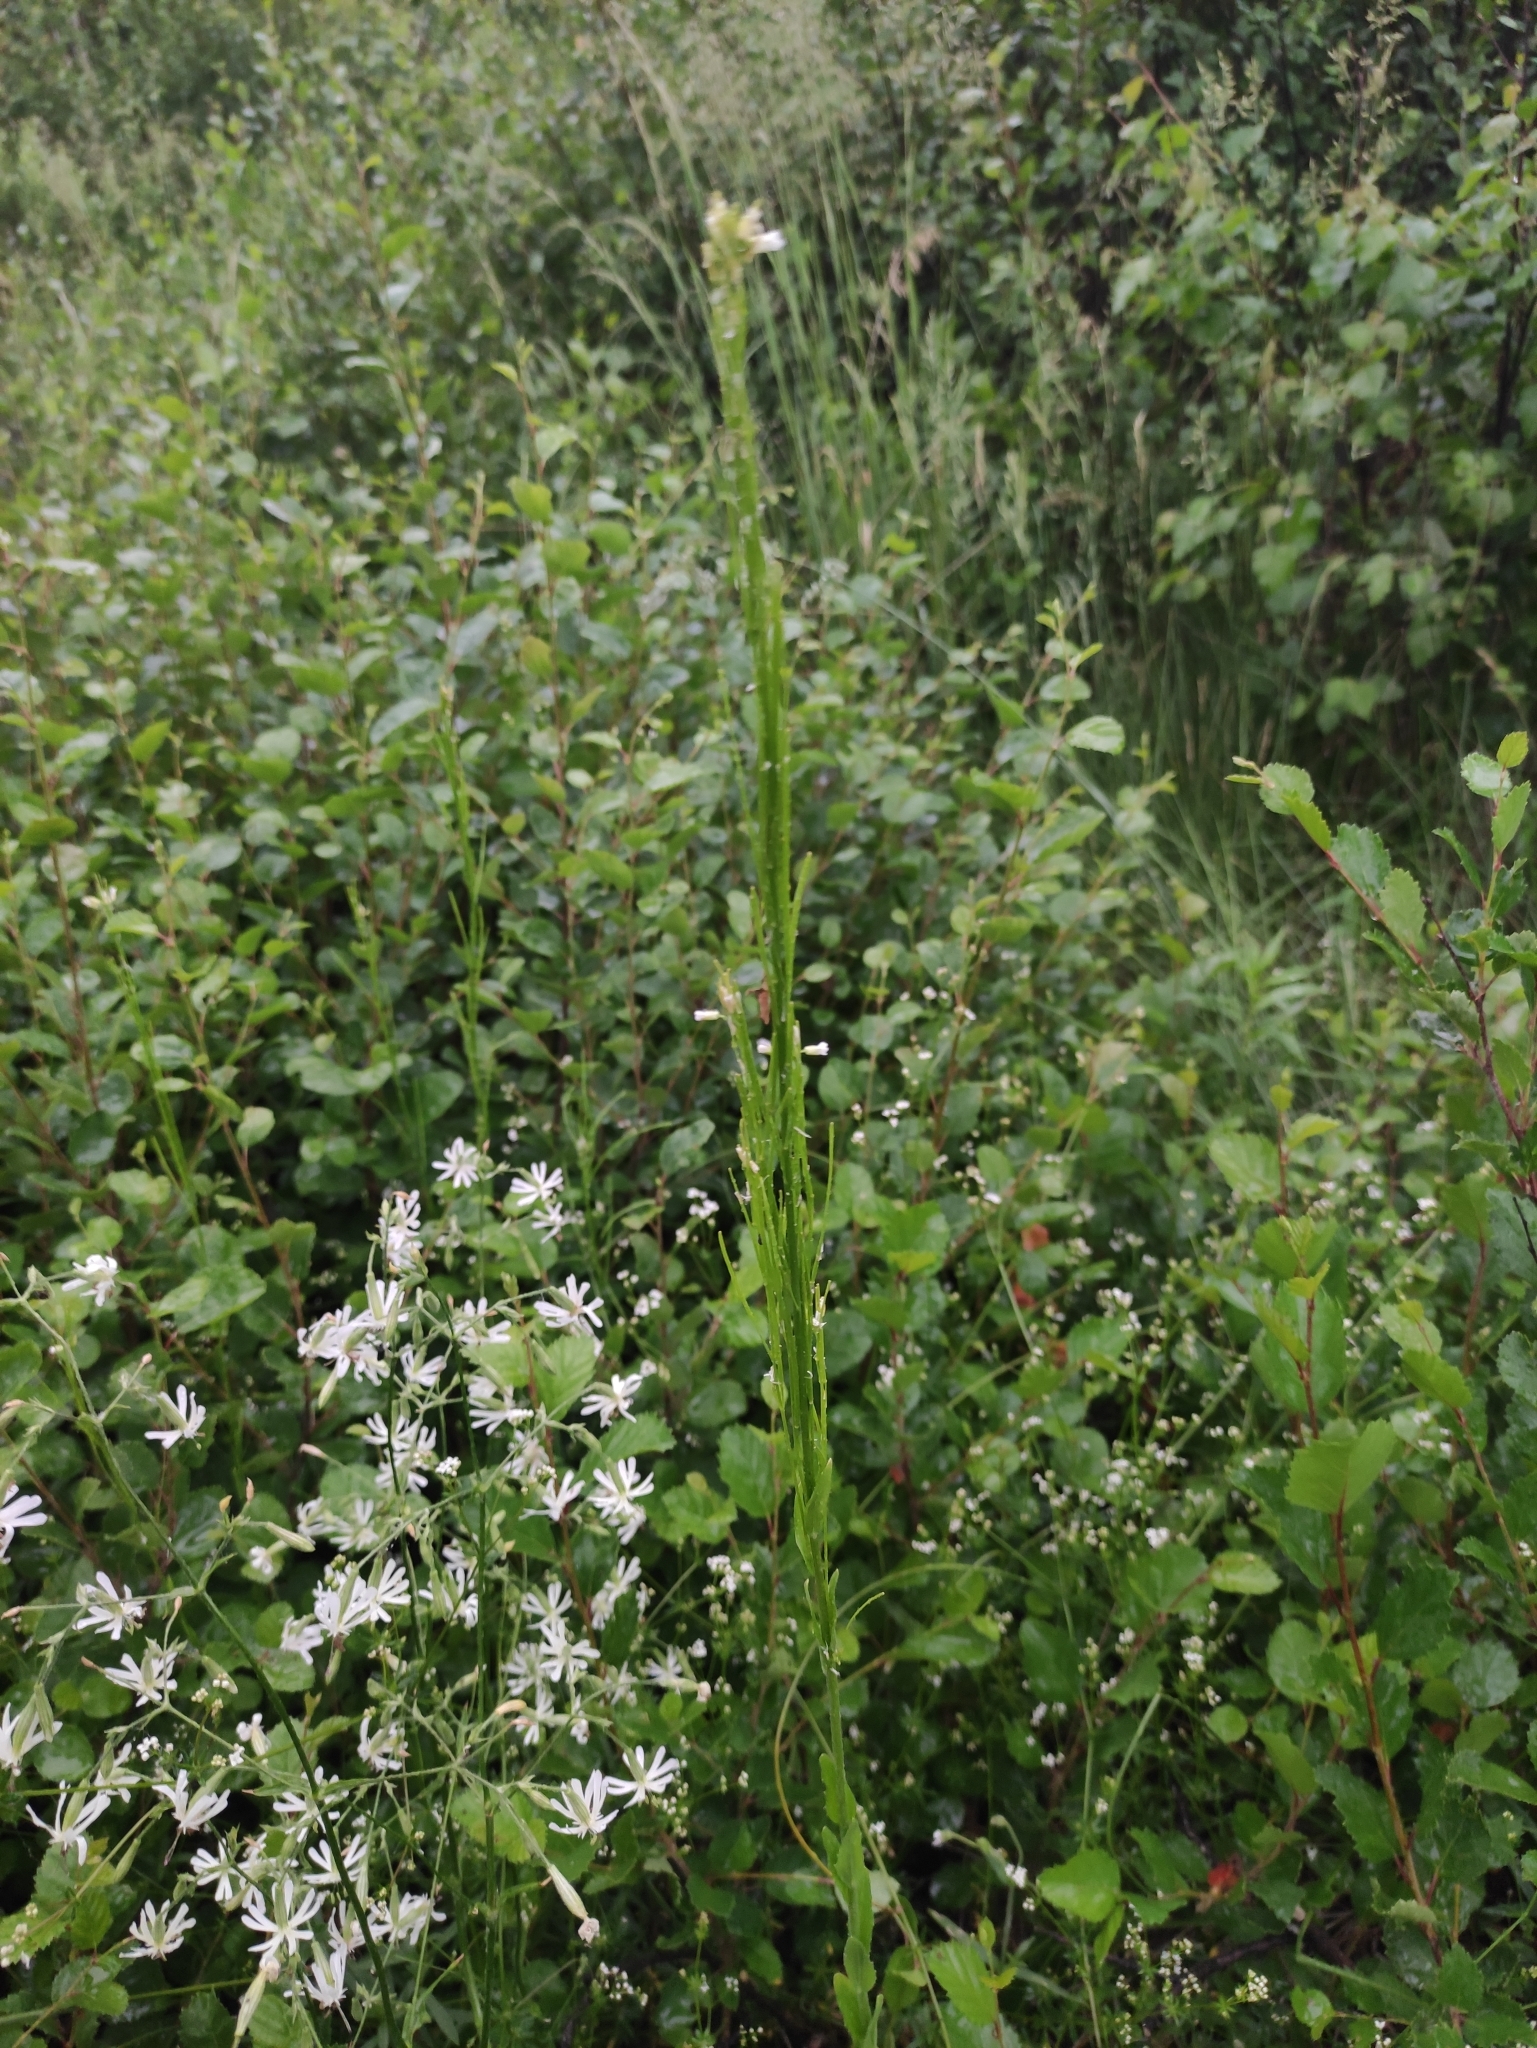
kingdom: Plantae
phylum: Tracheophyta
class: Magnoliopsida
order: Brassicales
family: Brassicaceae
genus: Arabis
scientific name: Arabis borealis
